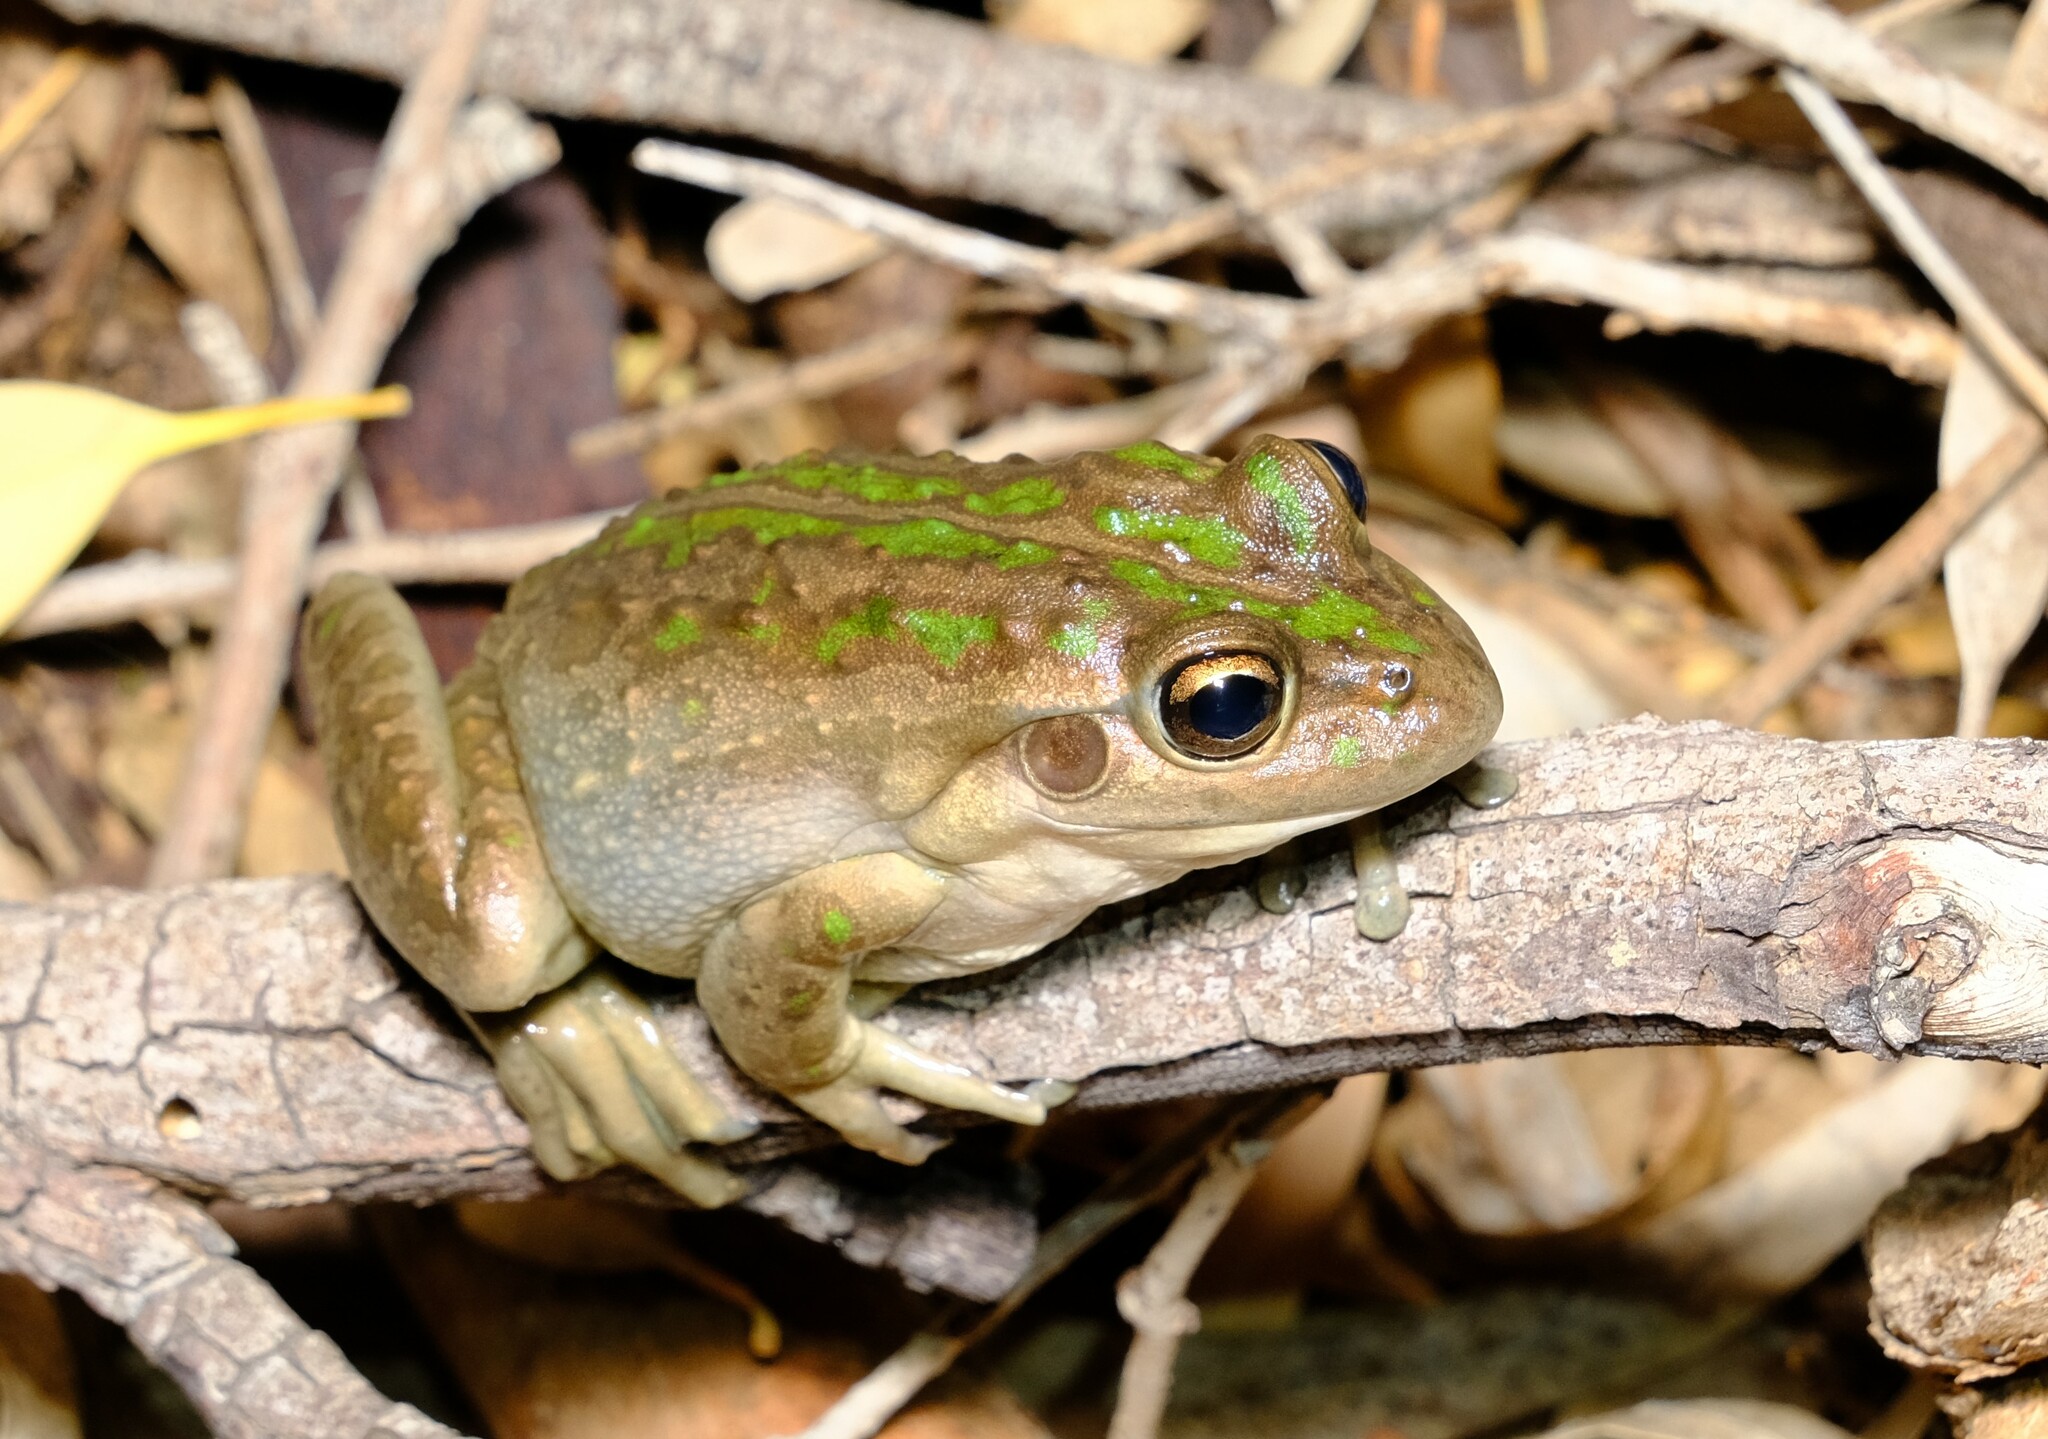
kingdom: Animalia
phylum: Chordata
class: Amphibia
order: Anura
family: Pelodryadidae
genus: Ranoidea
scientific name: Ranoidea moorei
